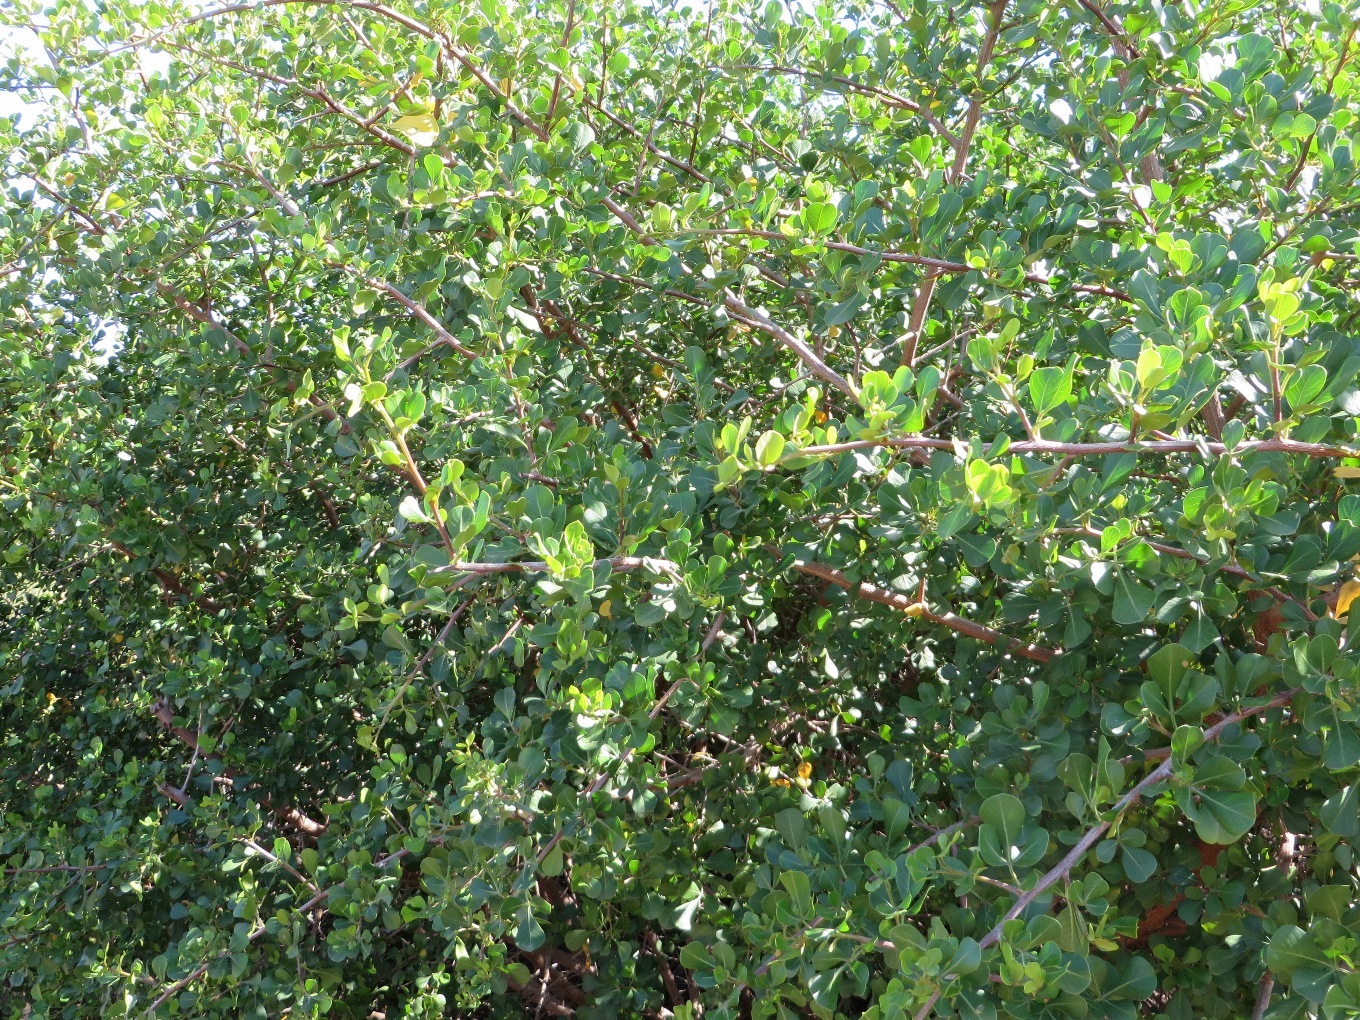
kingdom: Plantae
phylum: Tracheophyta
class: Magnoliopsida
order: Sapindales
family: Anacardiaceae
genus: Searsia
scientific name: Searsia glauca
